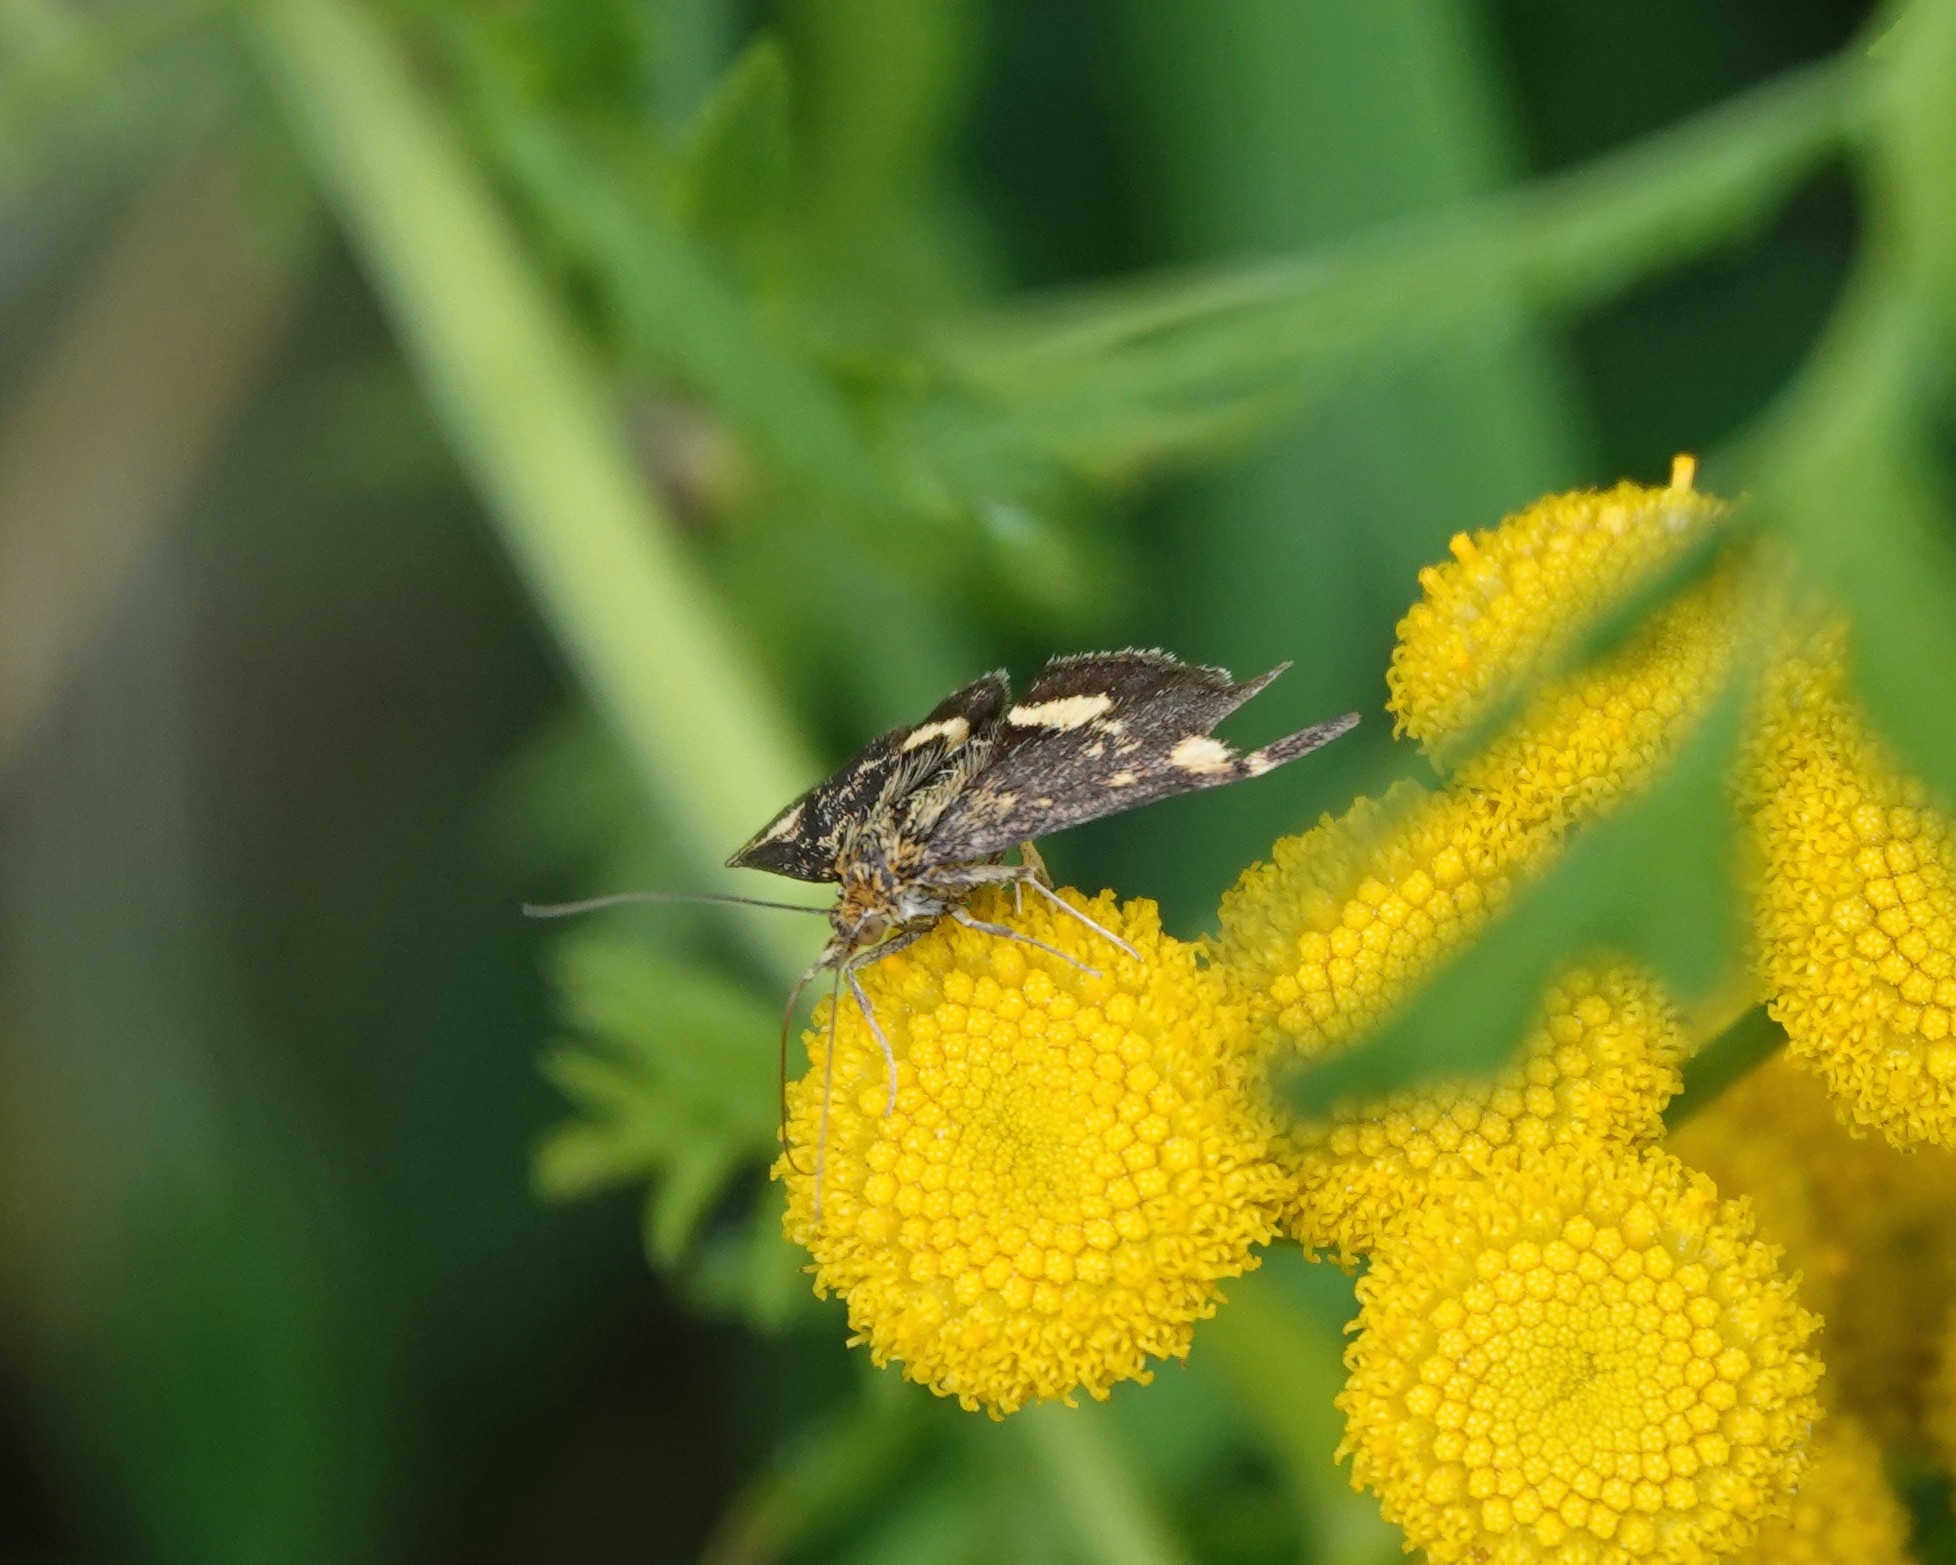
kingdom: Animalia
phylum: Arthropoda
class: Insecta
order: Lepidoptera
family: Crambidae
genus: Pyrausta
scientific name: Pyrausta aurata
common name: Small purple & gold
